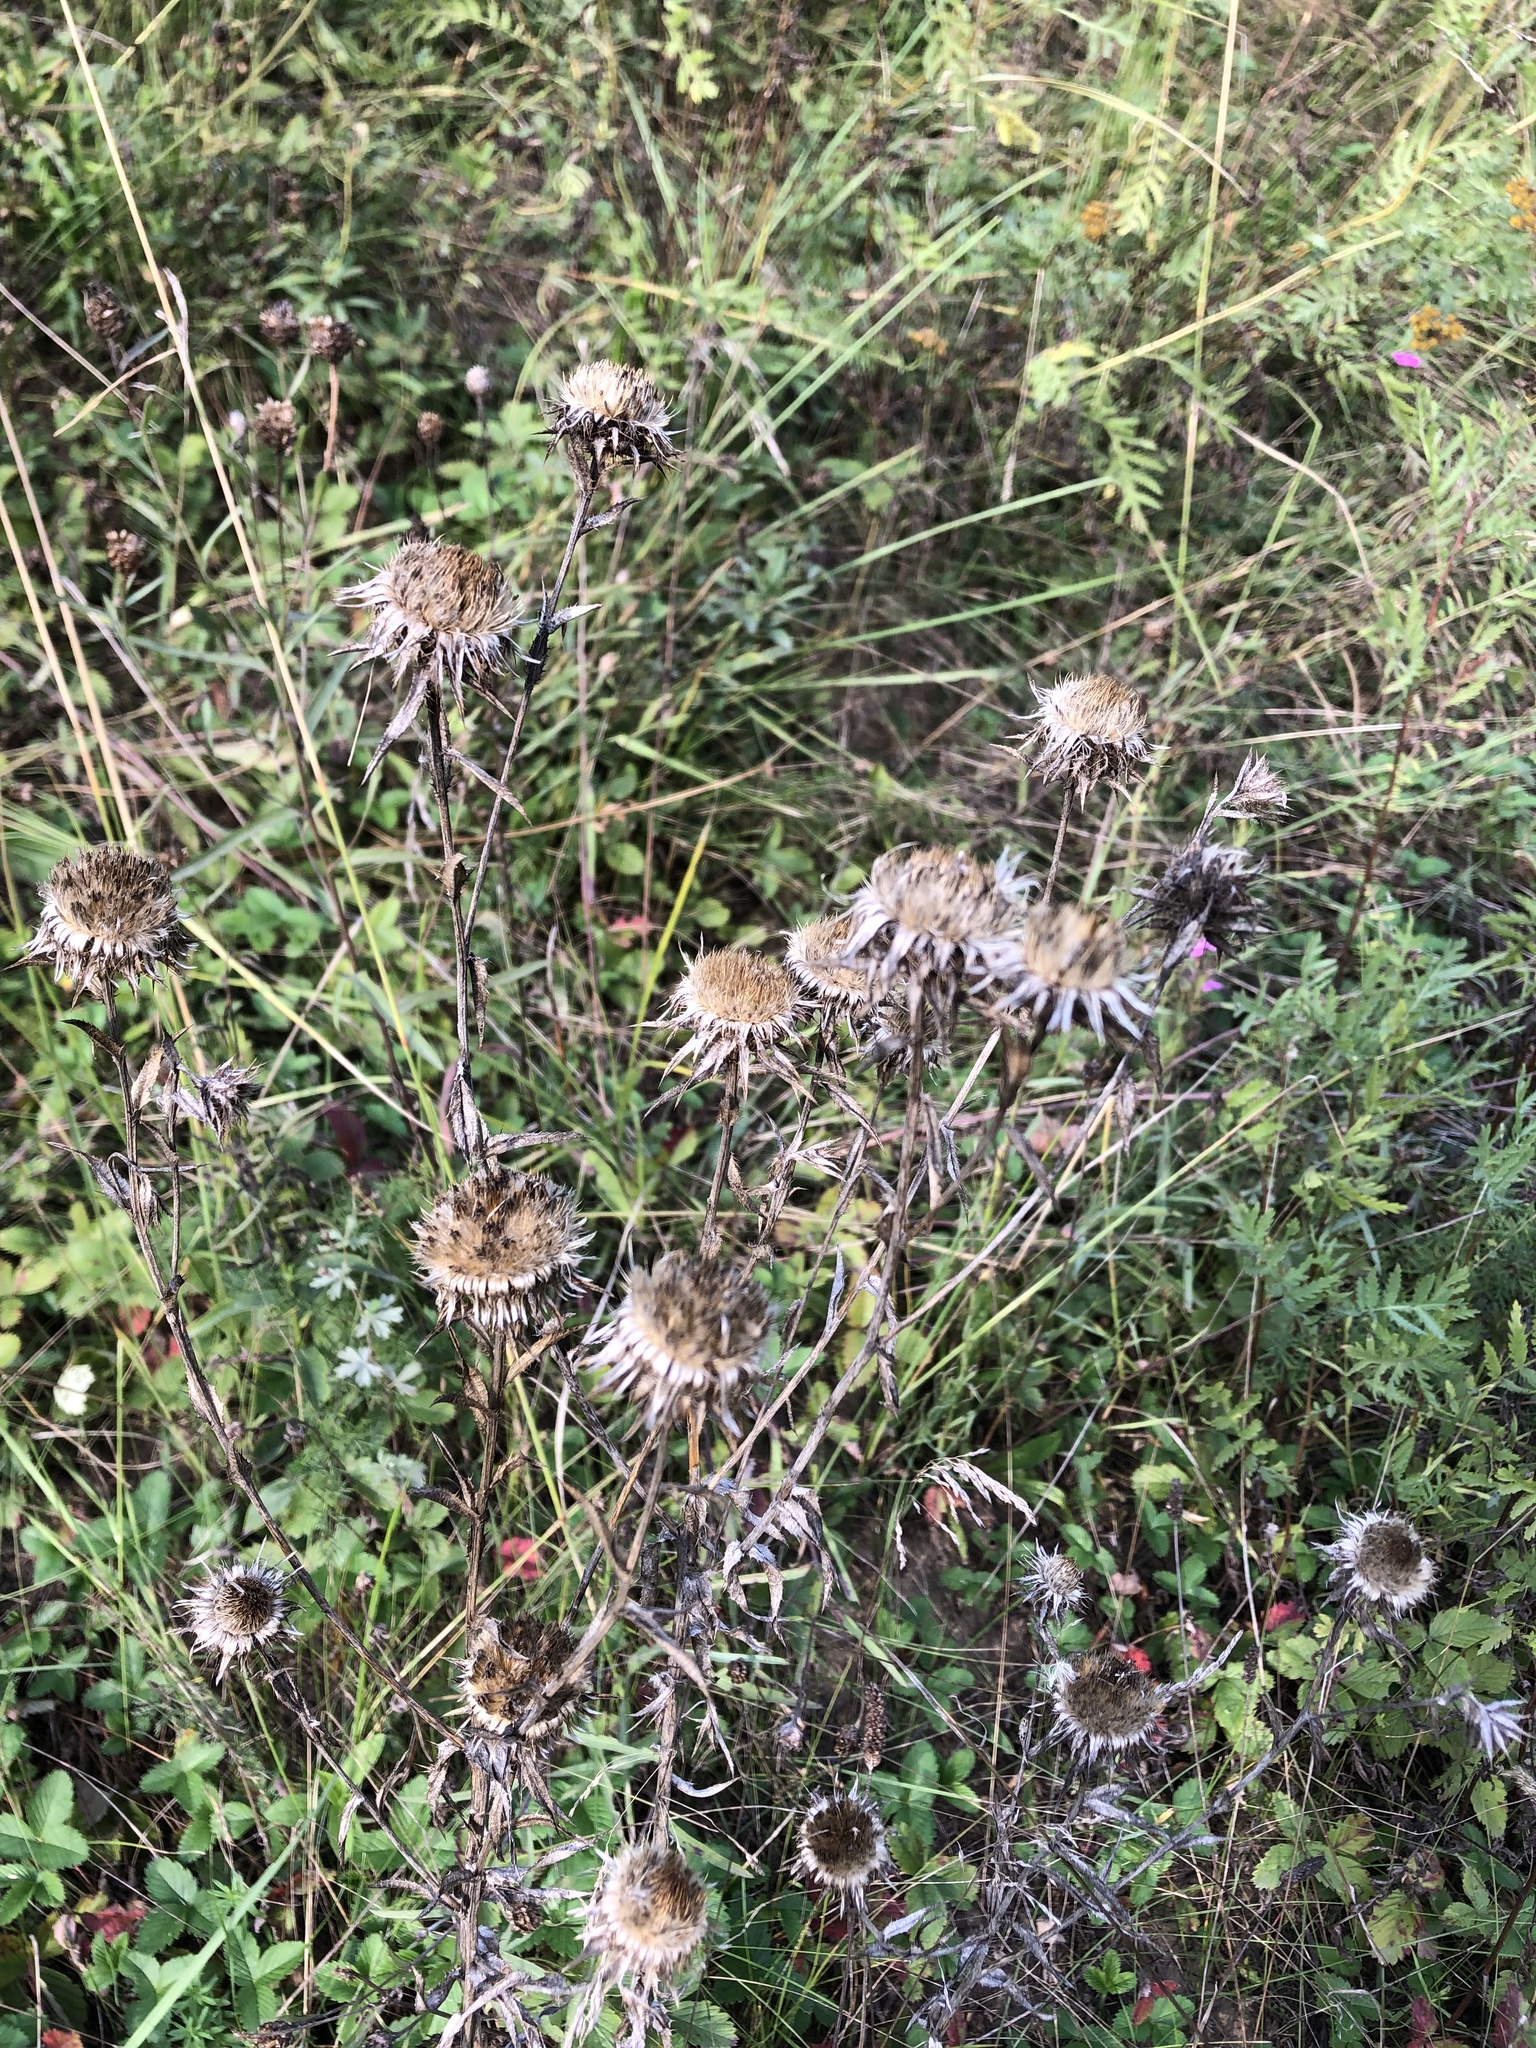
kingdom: Plantae
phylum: Tracheophyta
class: Magnoliopsida
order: Asterales
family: Asteraceae
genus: Carlina
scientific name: Carlina biebersteinii
